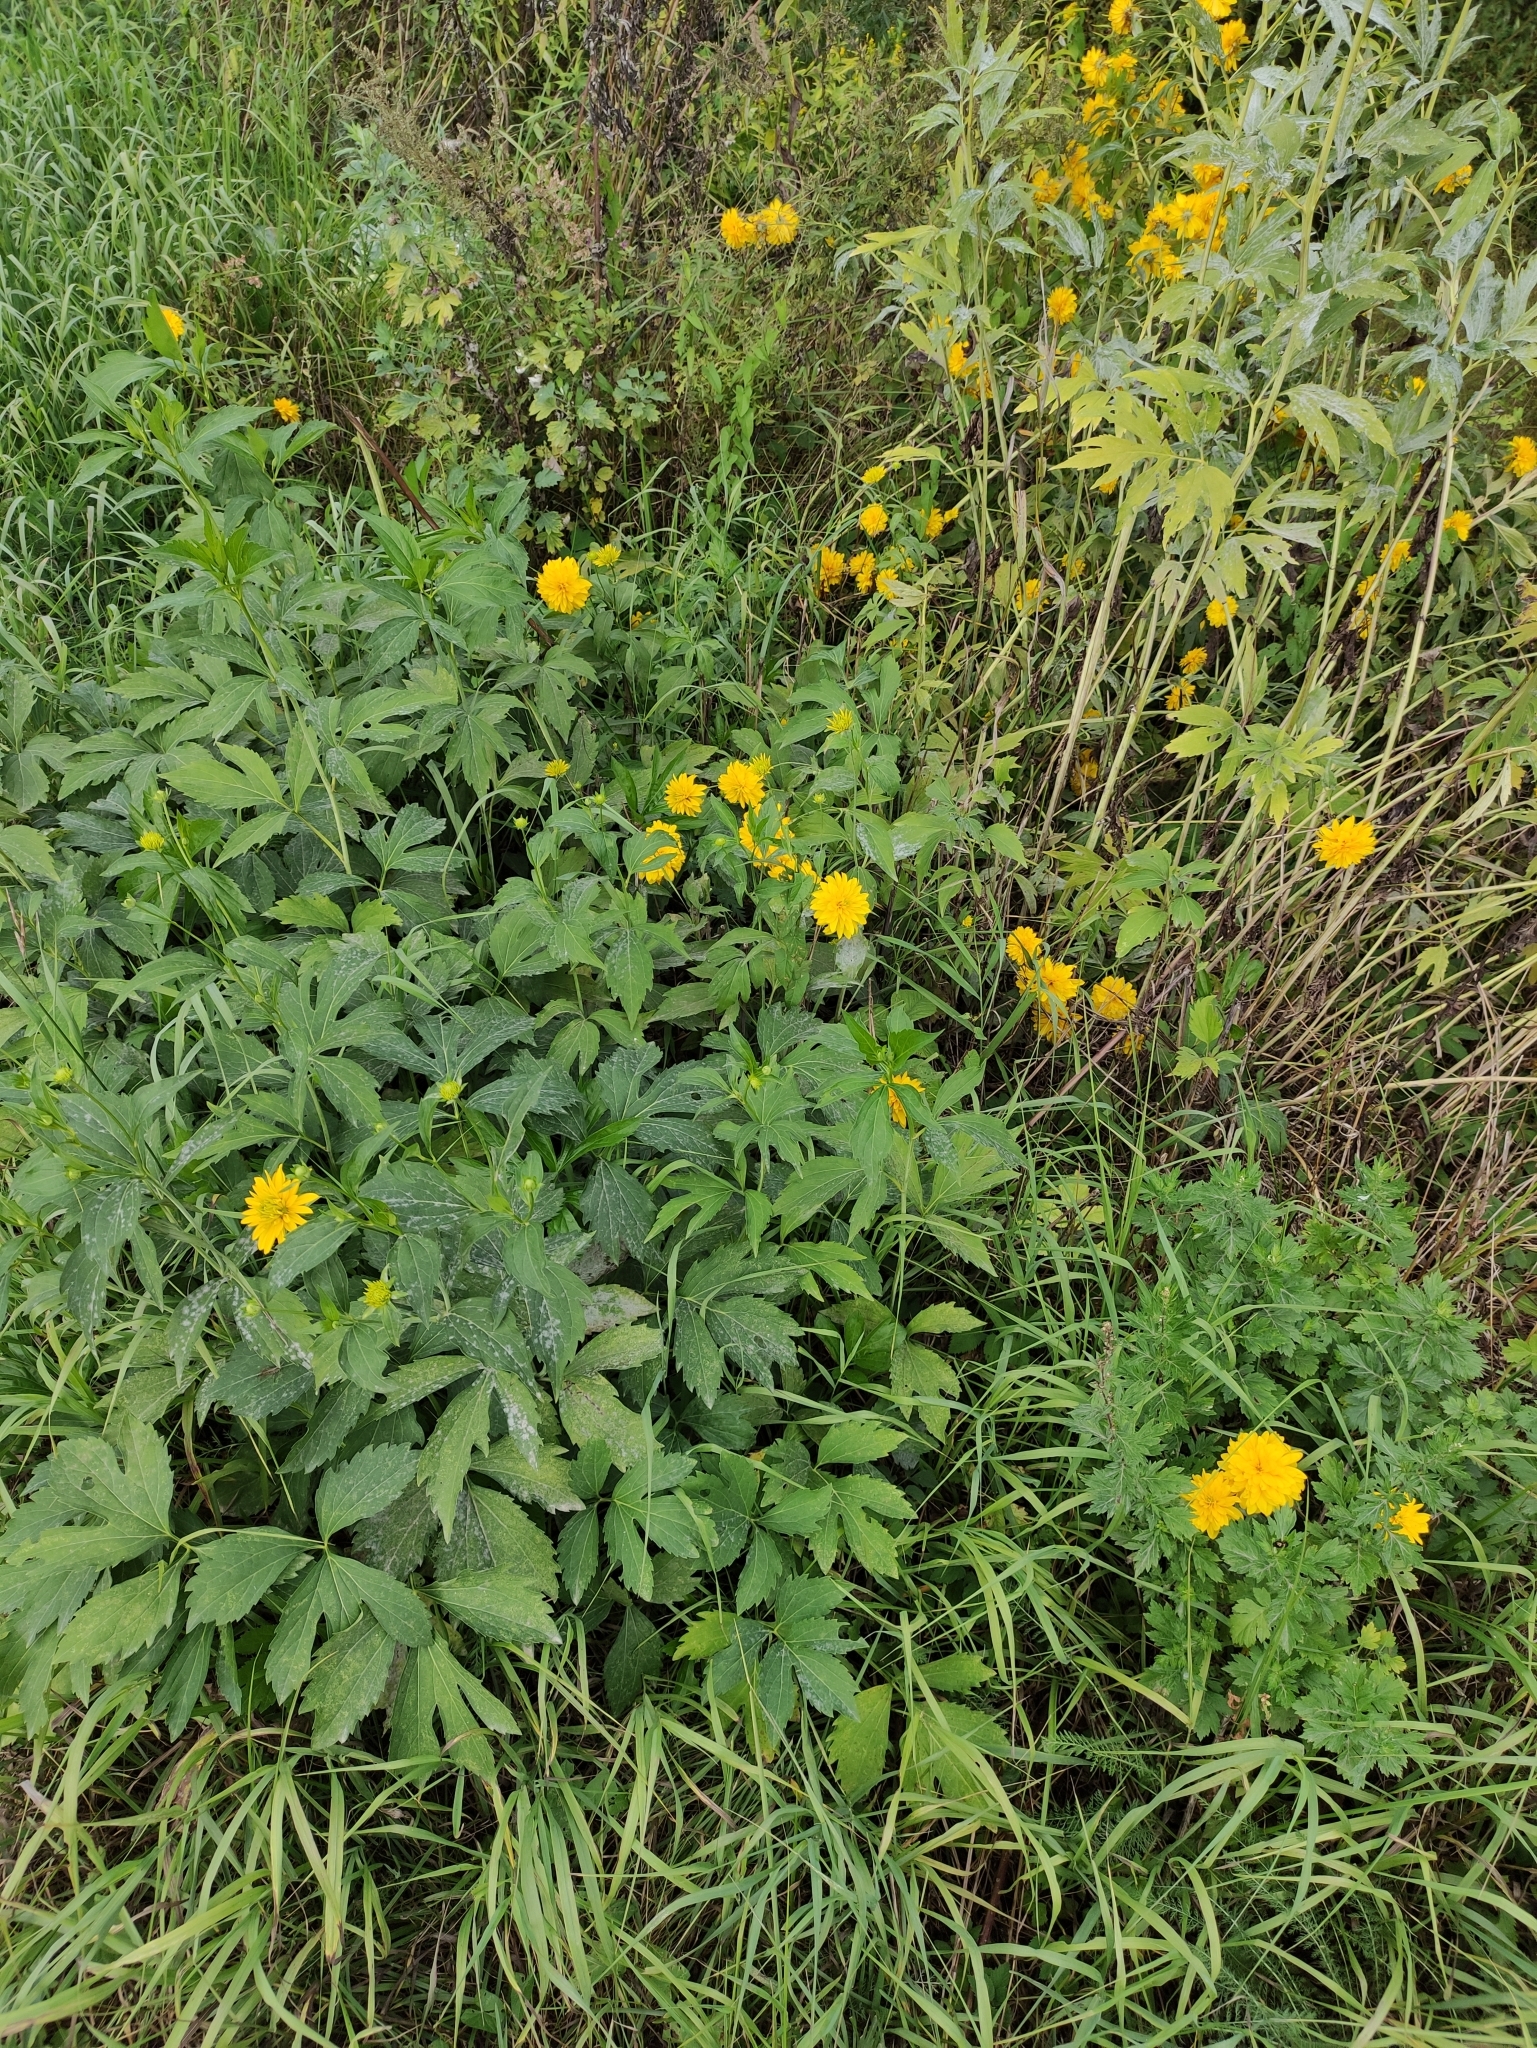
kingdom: Plantae
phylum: Tracheophyta
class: Magnoliopsida
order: Asterales
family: Asteraceae
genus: Rudbeckia
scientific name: Rudbeckia laciniata
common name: Coneflower
